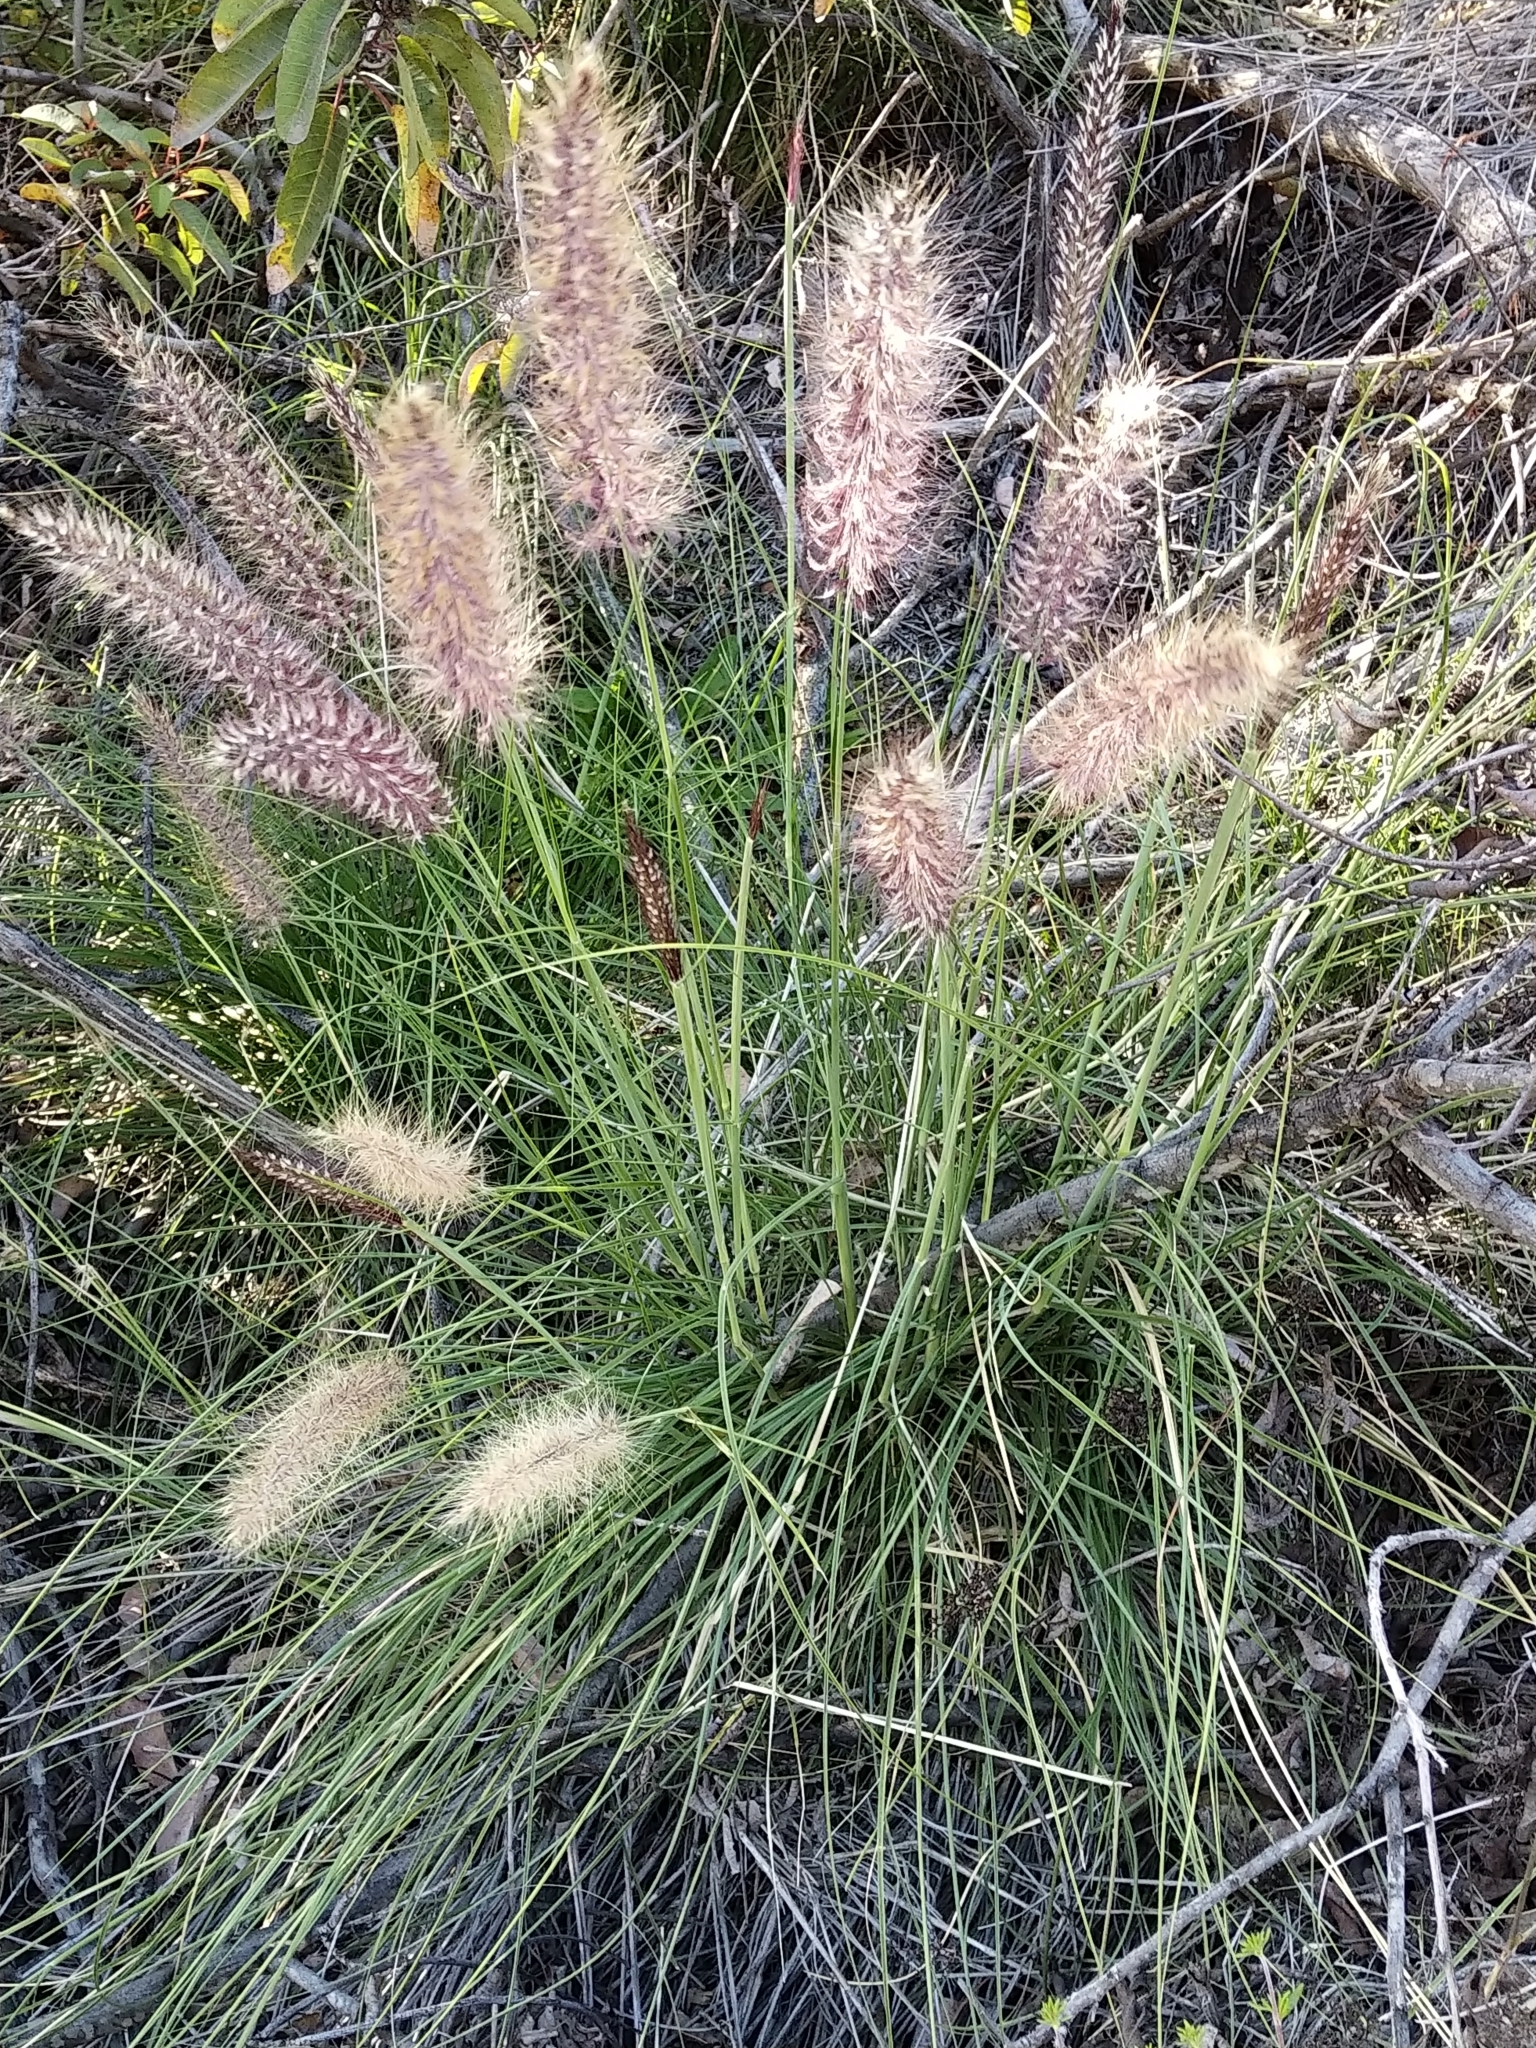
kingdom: Plantae
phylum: Tracheophyta
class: Liliopsida
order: Poales
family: Poaceae
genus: Cenchrus
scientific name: Cenchrus setaceus
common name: Crimson fountaingrass
